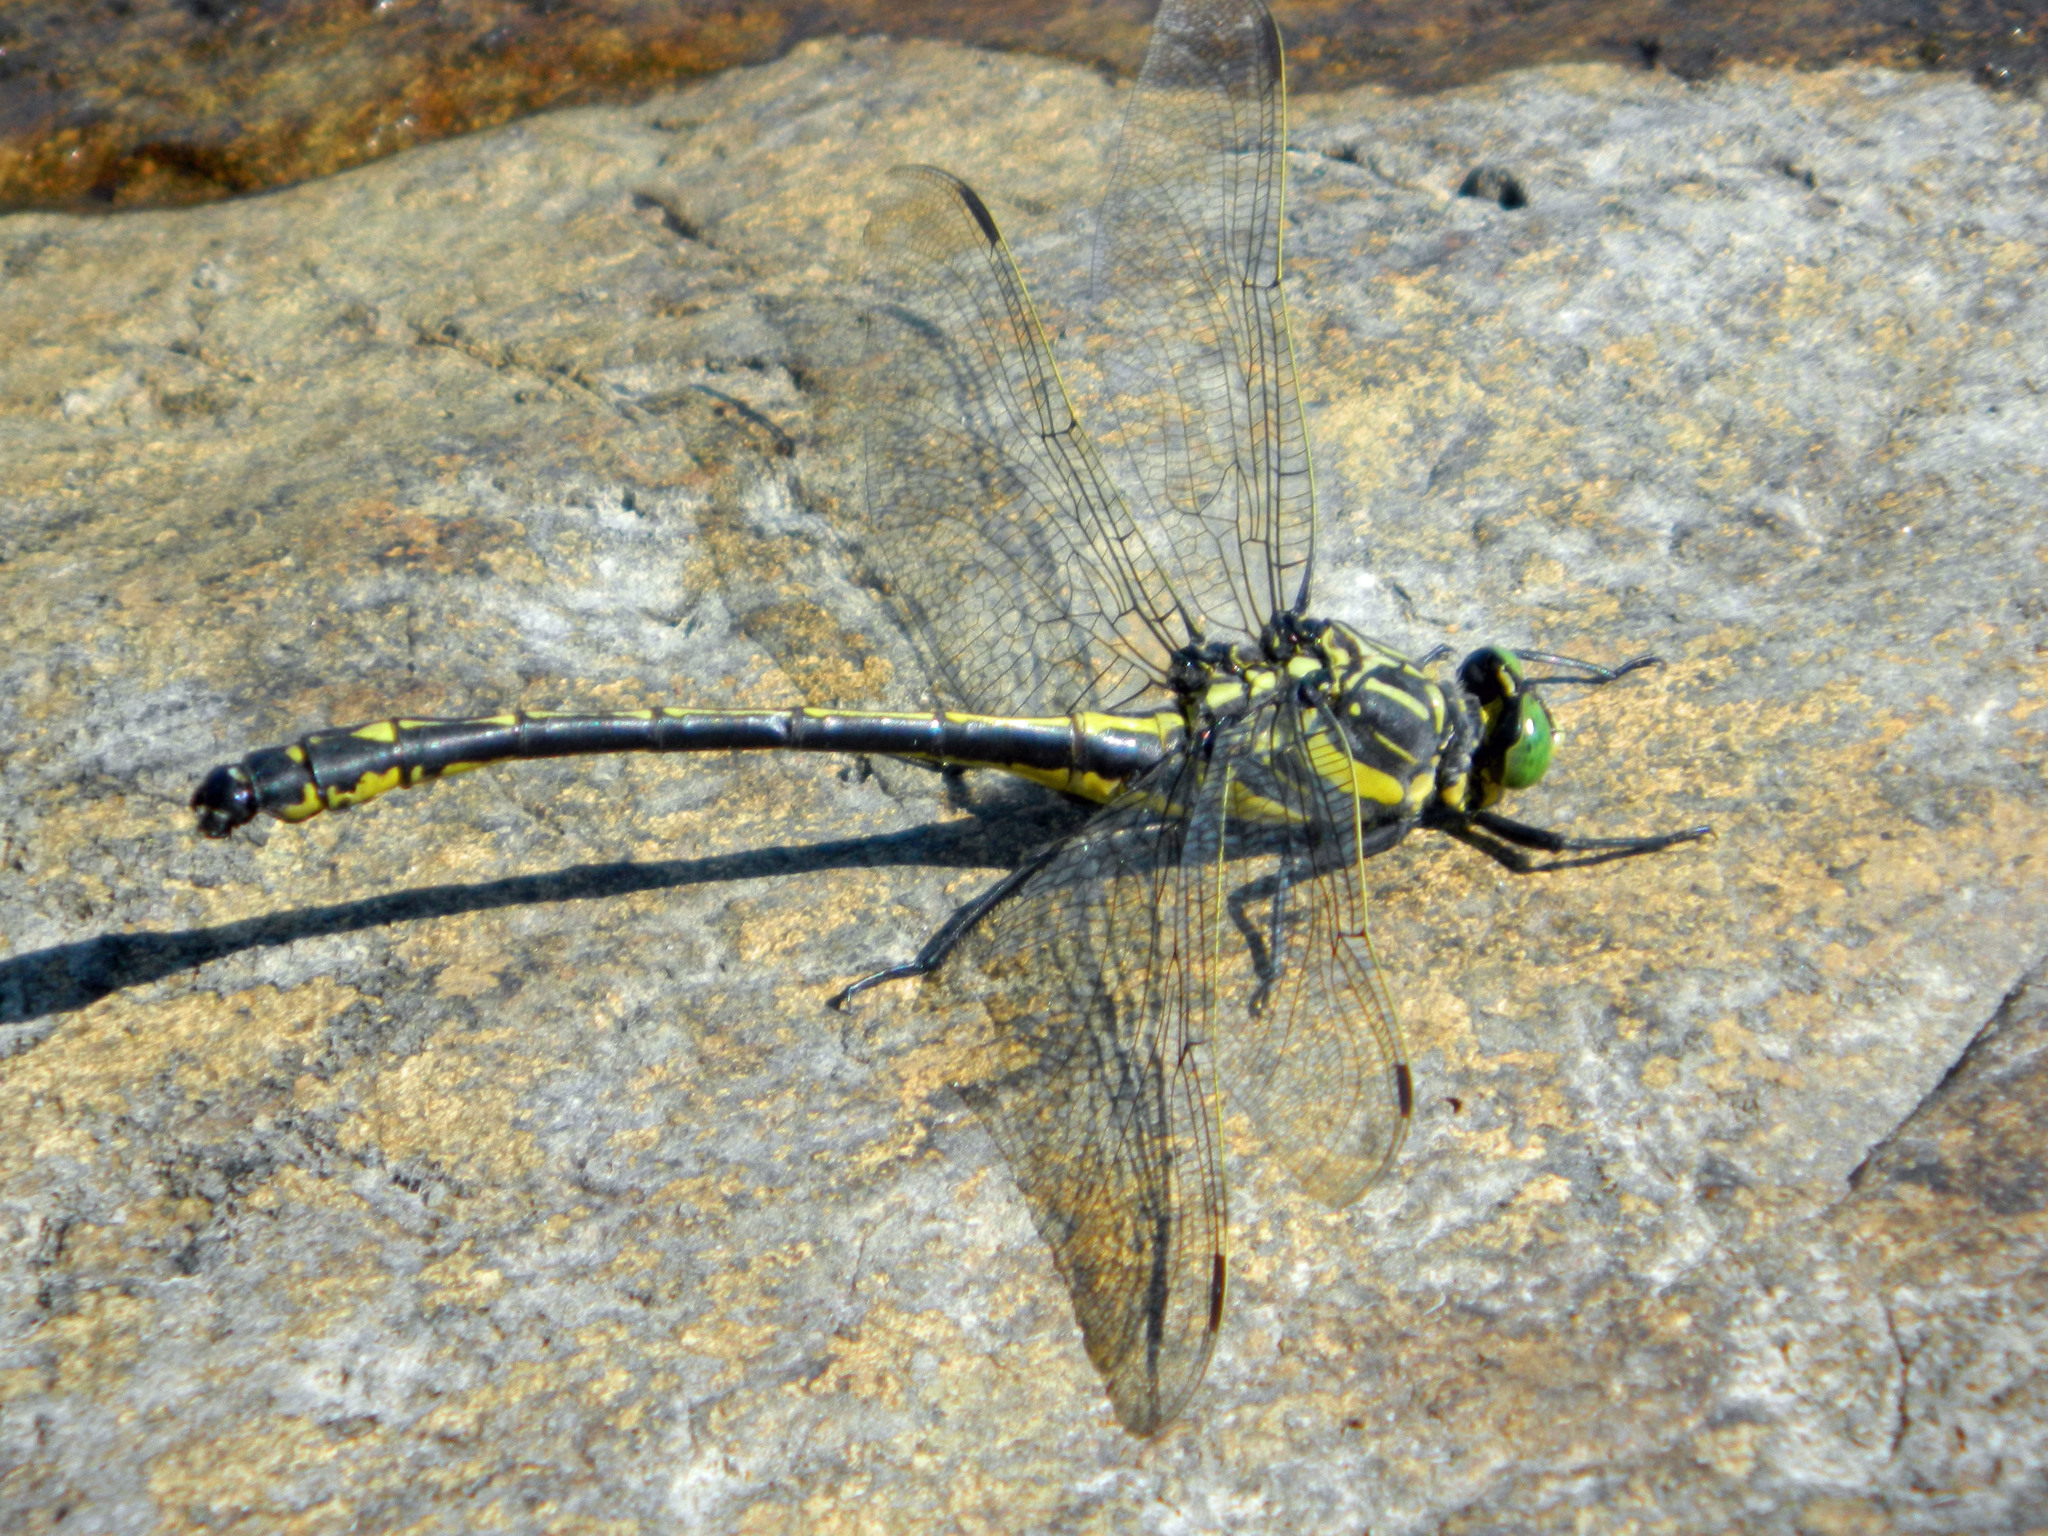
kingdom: Animalia
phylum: Arthropoda
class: Insecta
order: Odonata
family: Gomphidae
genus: Hagenius
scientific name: Hagenius brevistylus
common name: Dragonhunter
